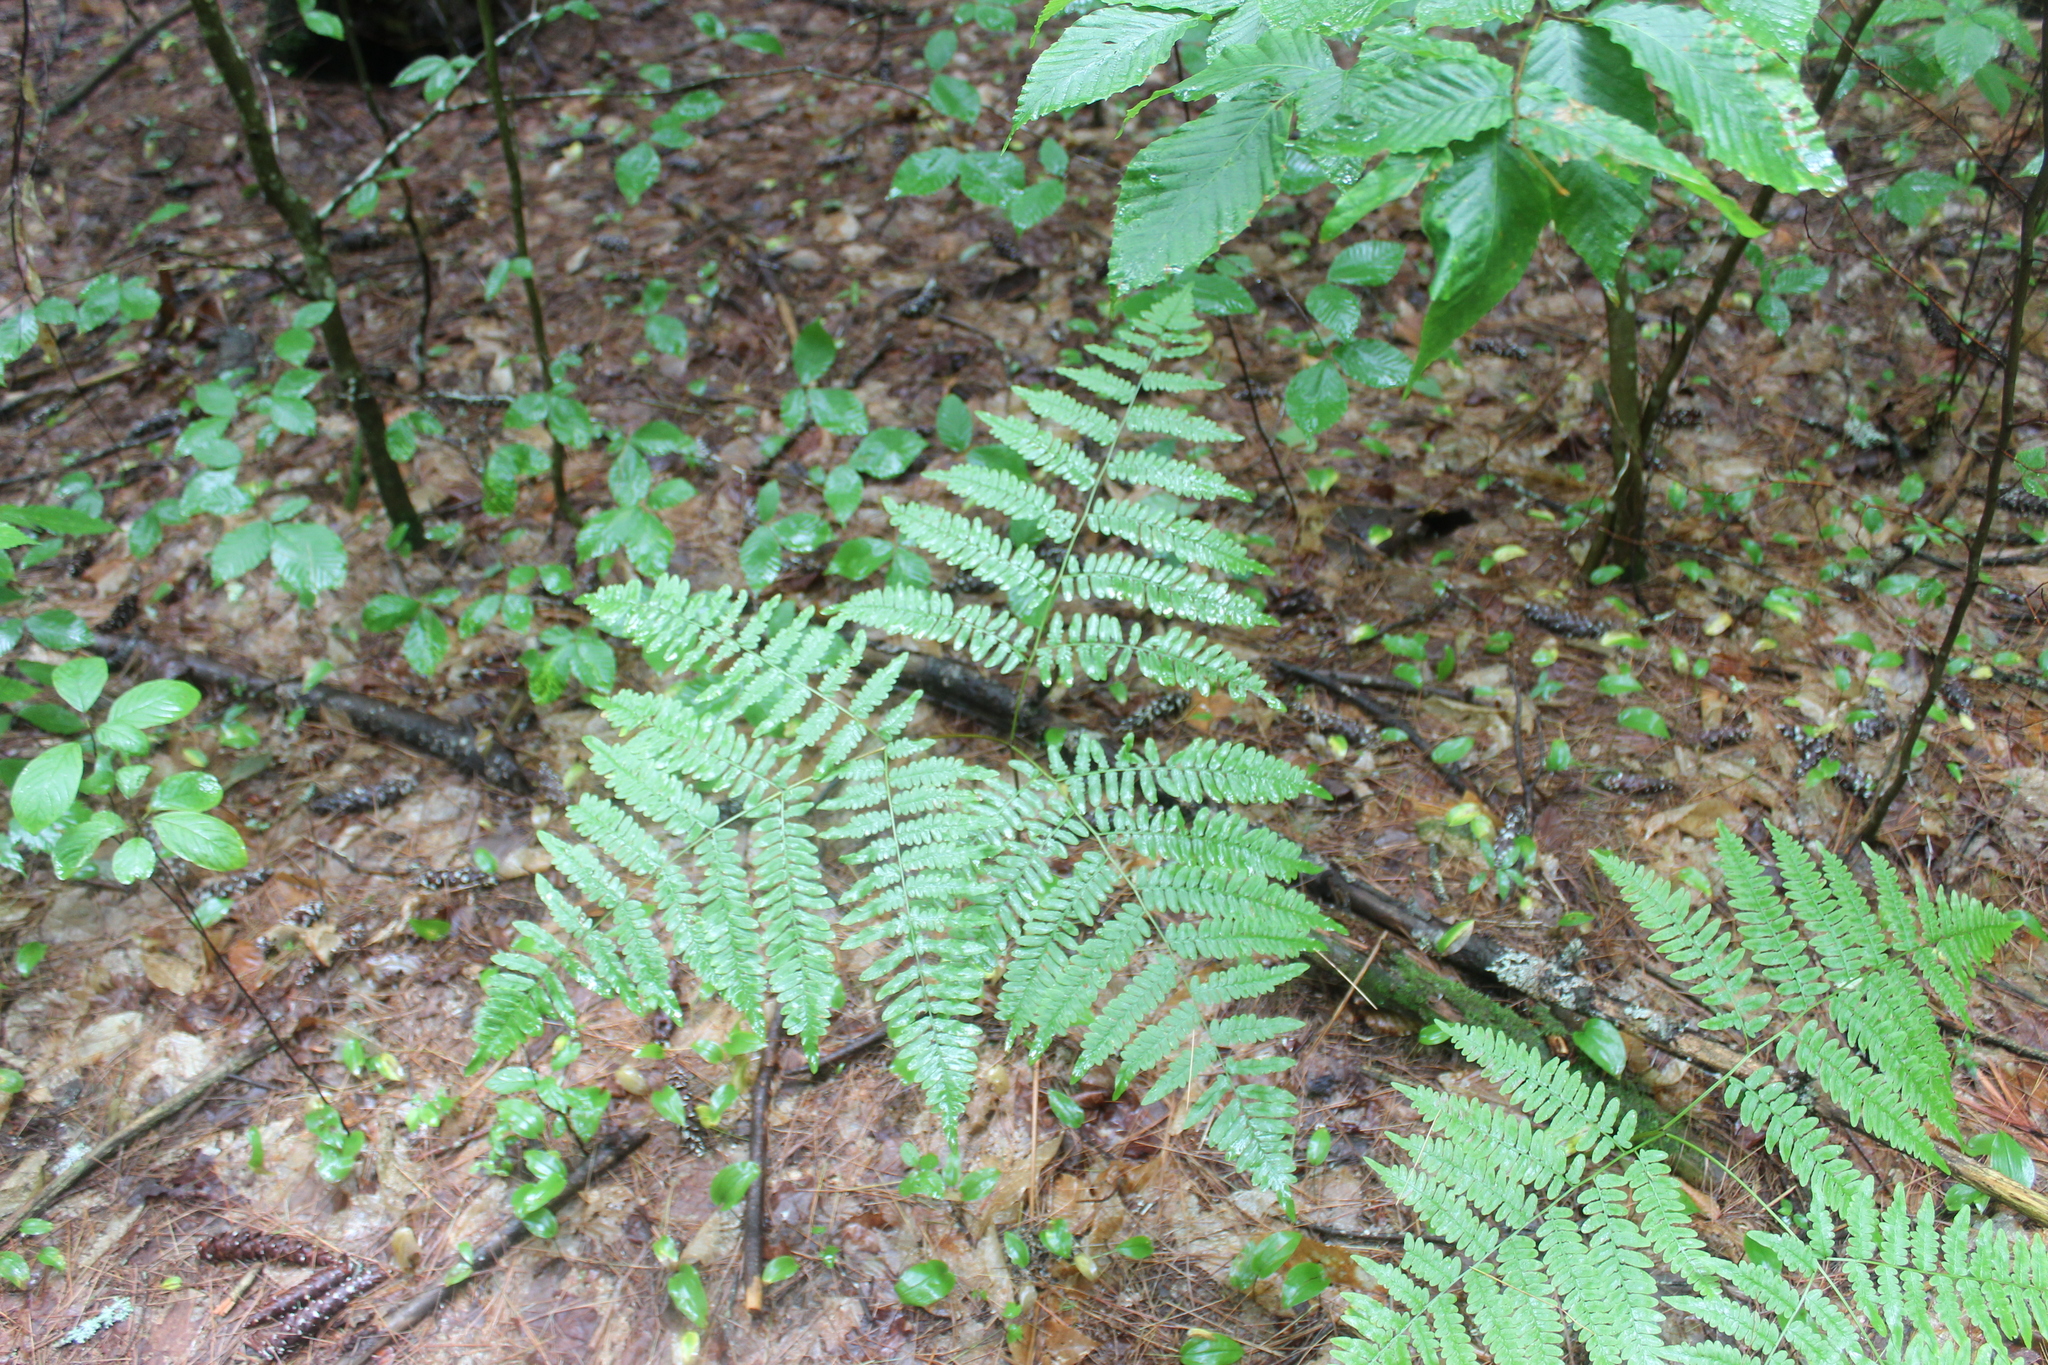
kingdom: Plantae
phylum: Tracheophyta
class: Polypodiopsida
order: Polypodiales
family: Dennstaedtiaceae
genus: Pteridium
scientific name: Pteridium aquilinum
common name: Bracken
